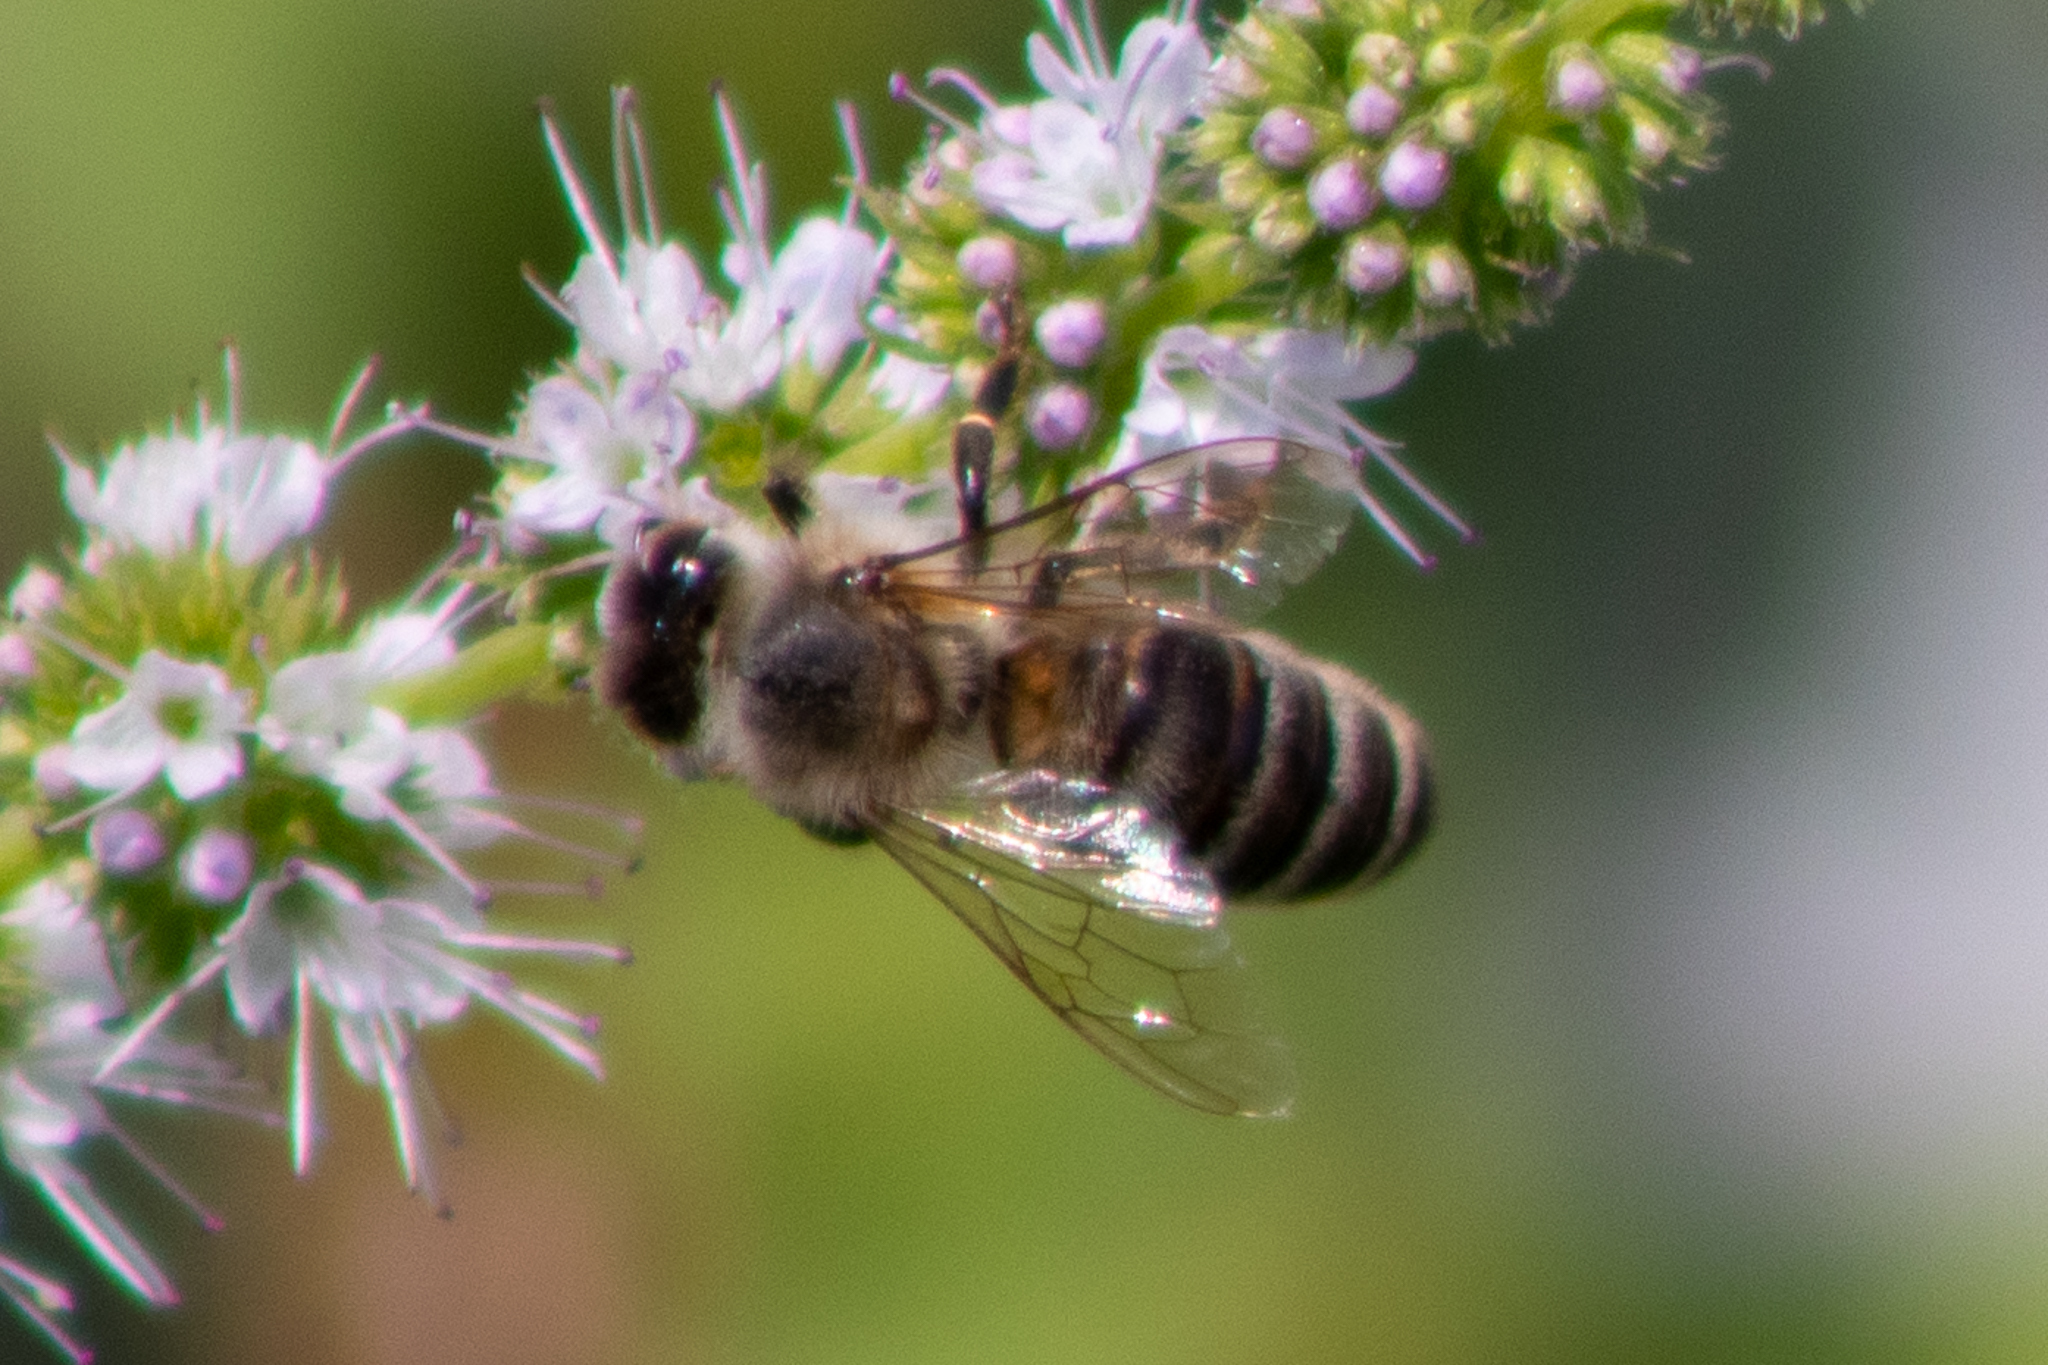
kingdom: Animalia
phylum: Arthropoda
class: Insecta
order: Hymenoptera
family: Apidae
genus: Apis
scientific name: Apis mellifera
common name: Honey bee
